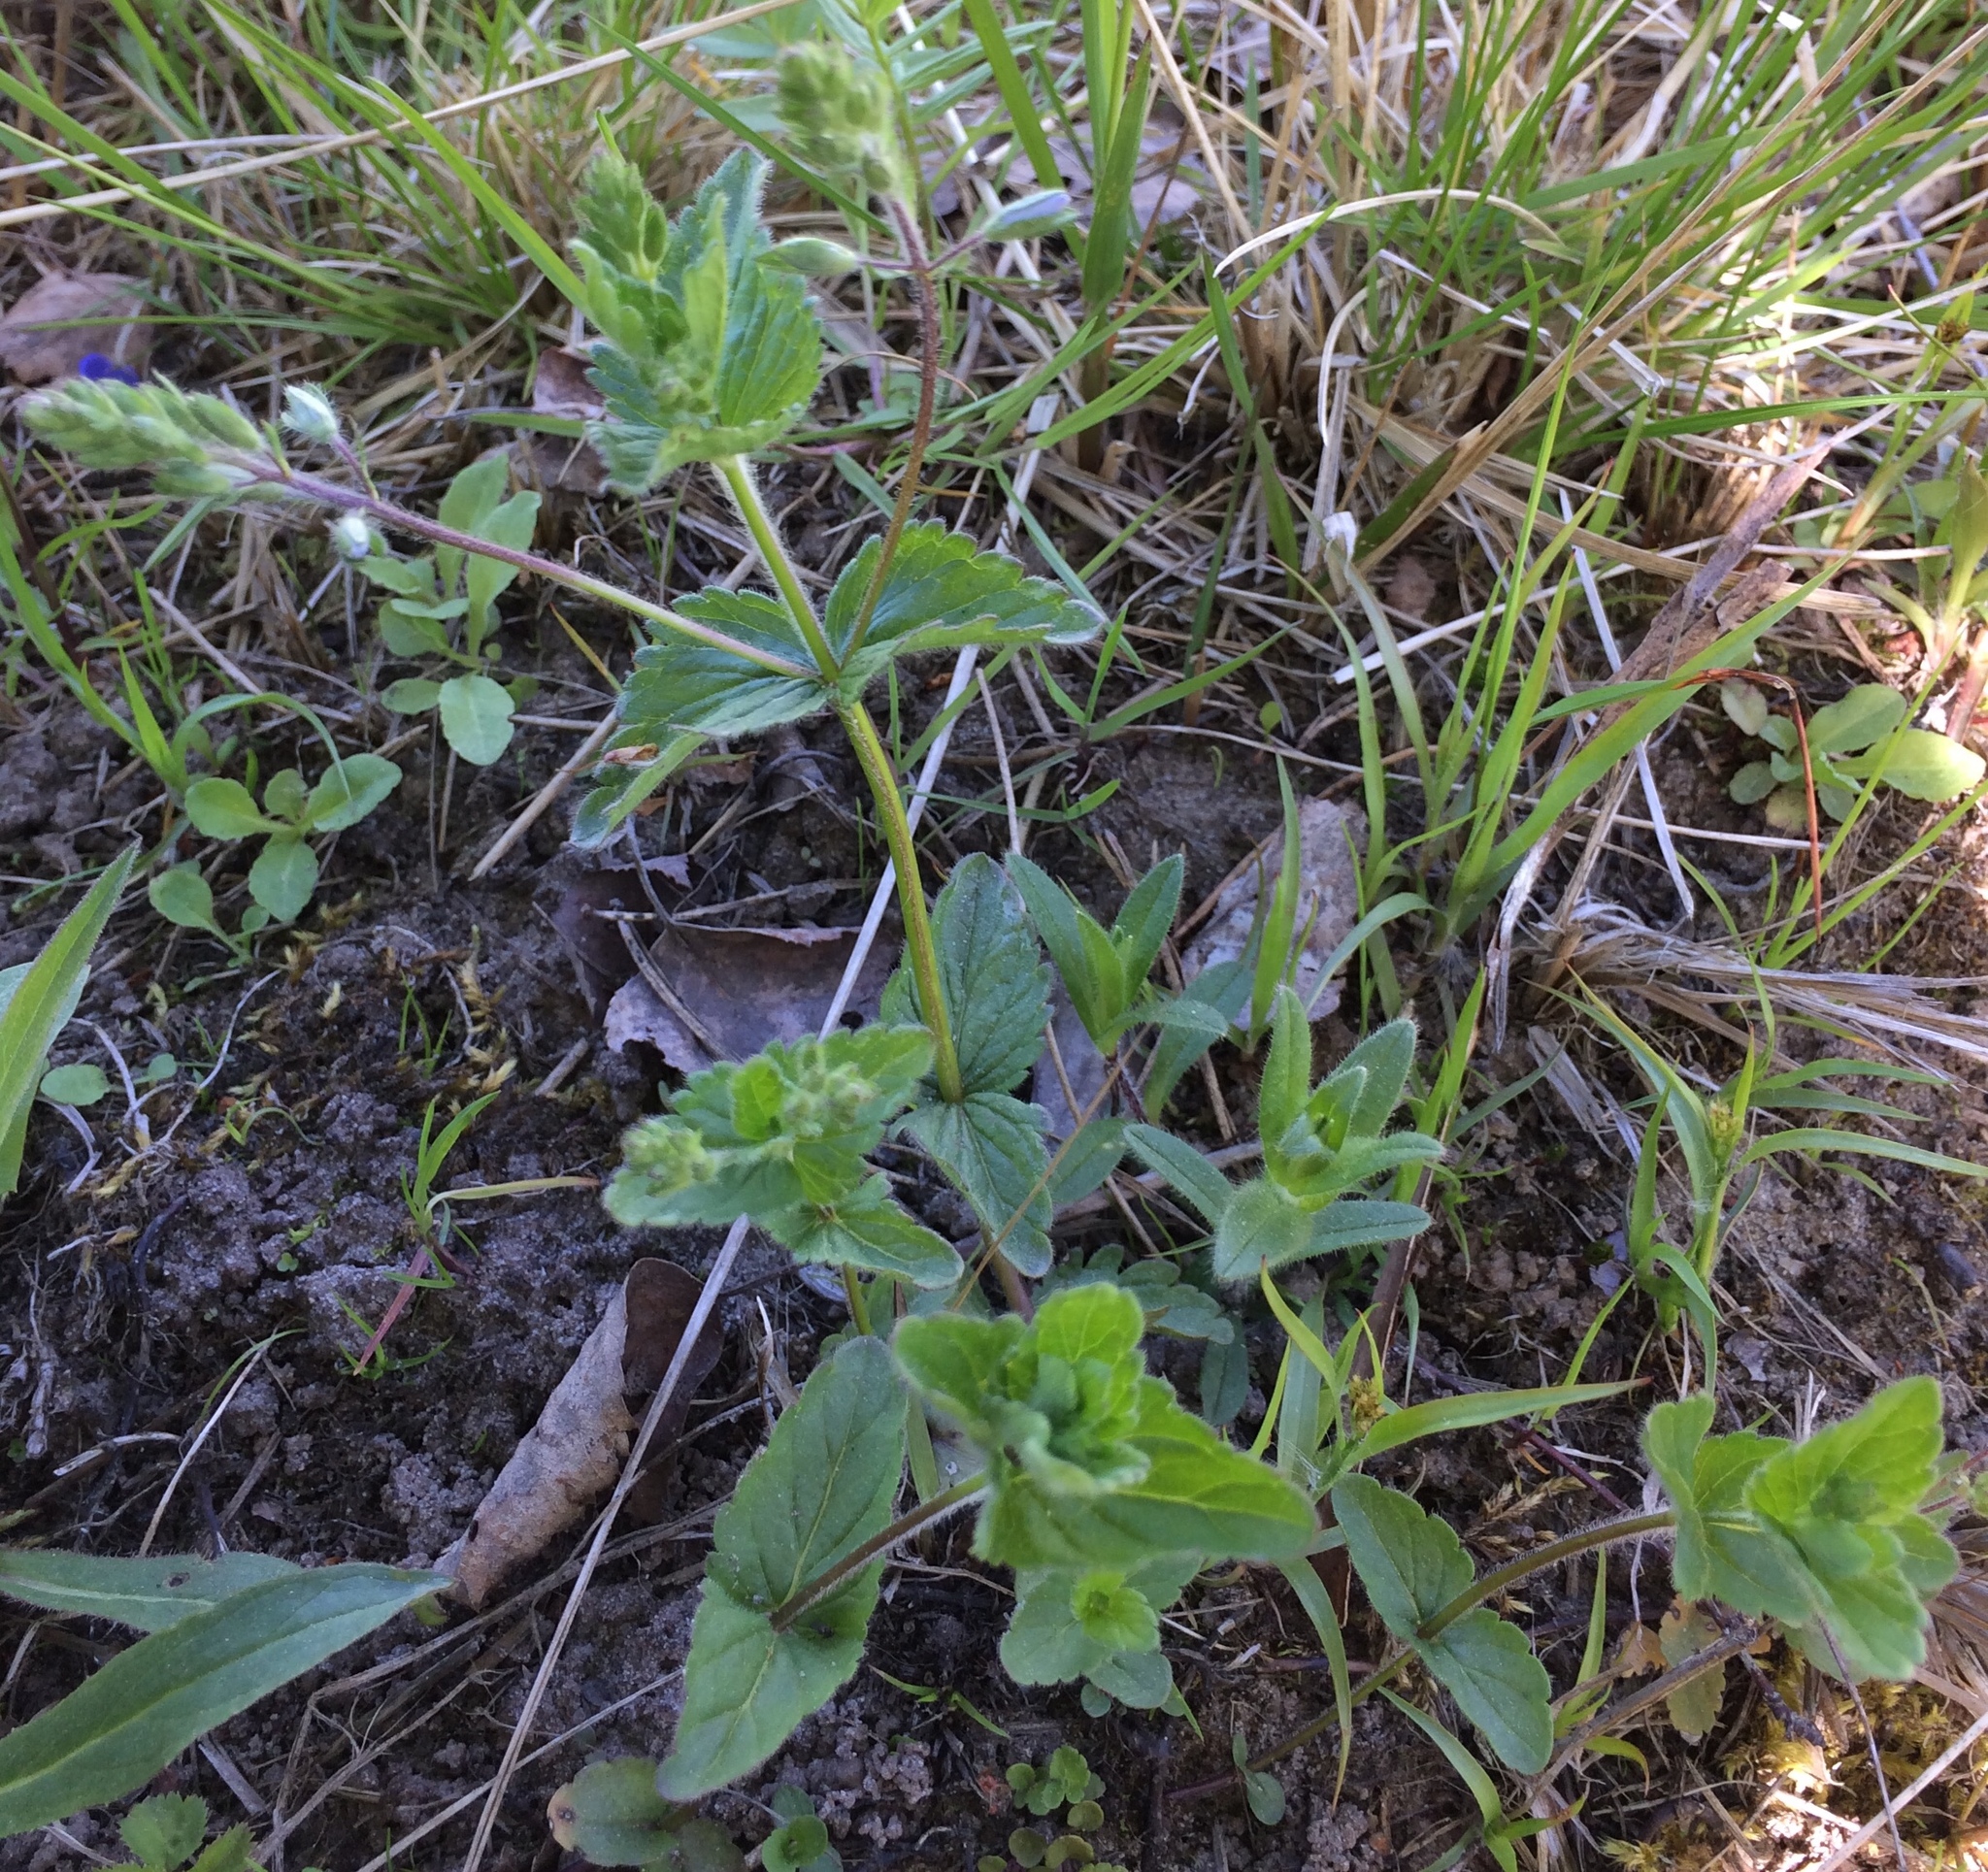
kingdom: Plantae
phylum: Tracheophyta
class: Magnoliopsida
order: Lamiales
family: Plantaginaceae
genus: Veronica
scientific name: Veronica chamaedrys
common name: Germander speedwell
